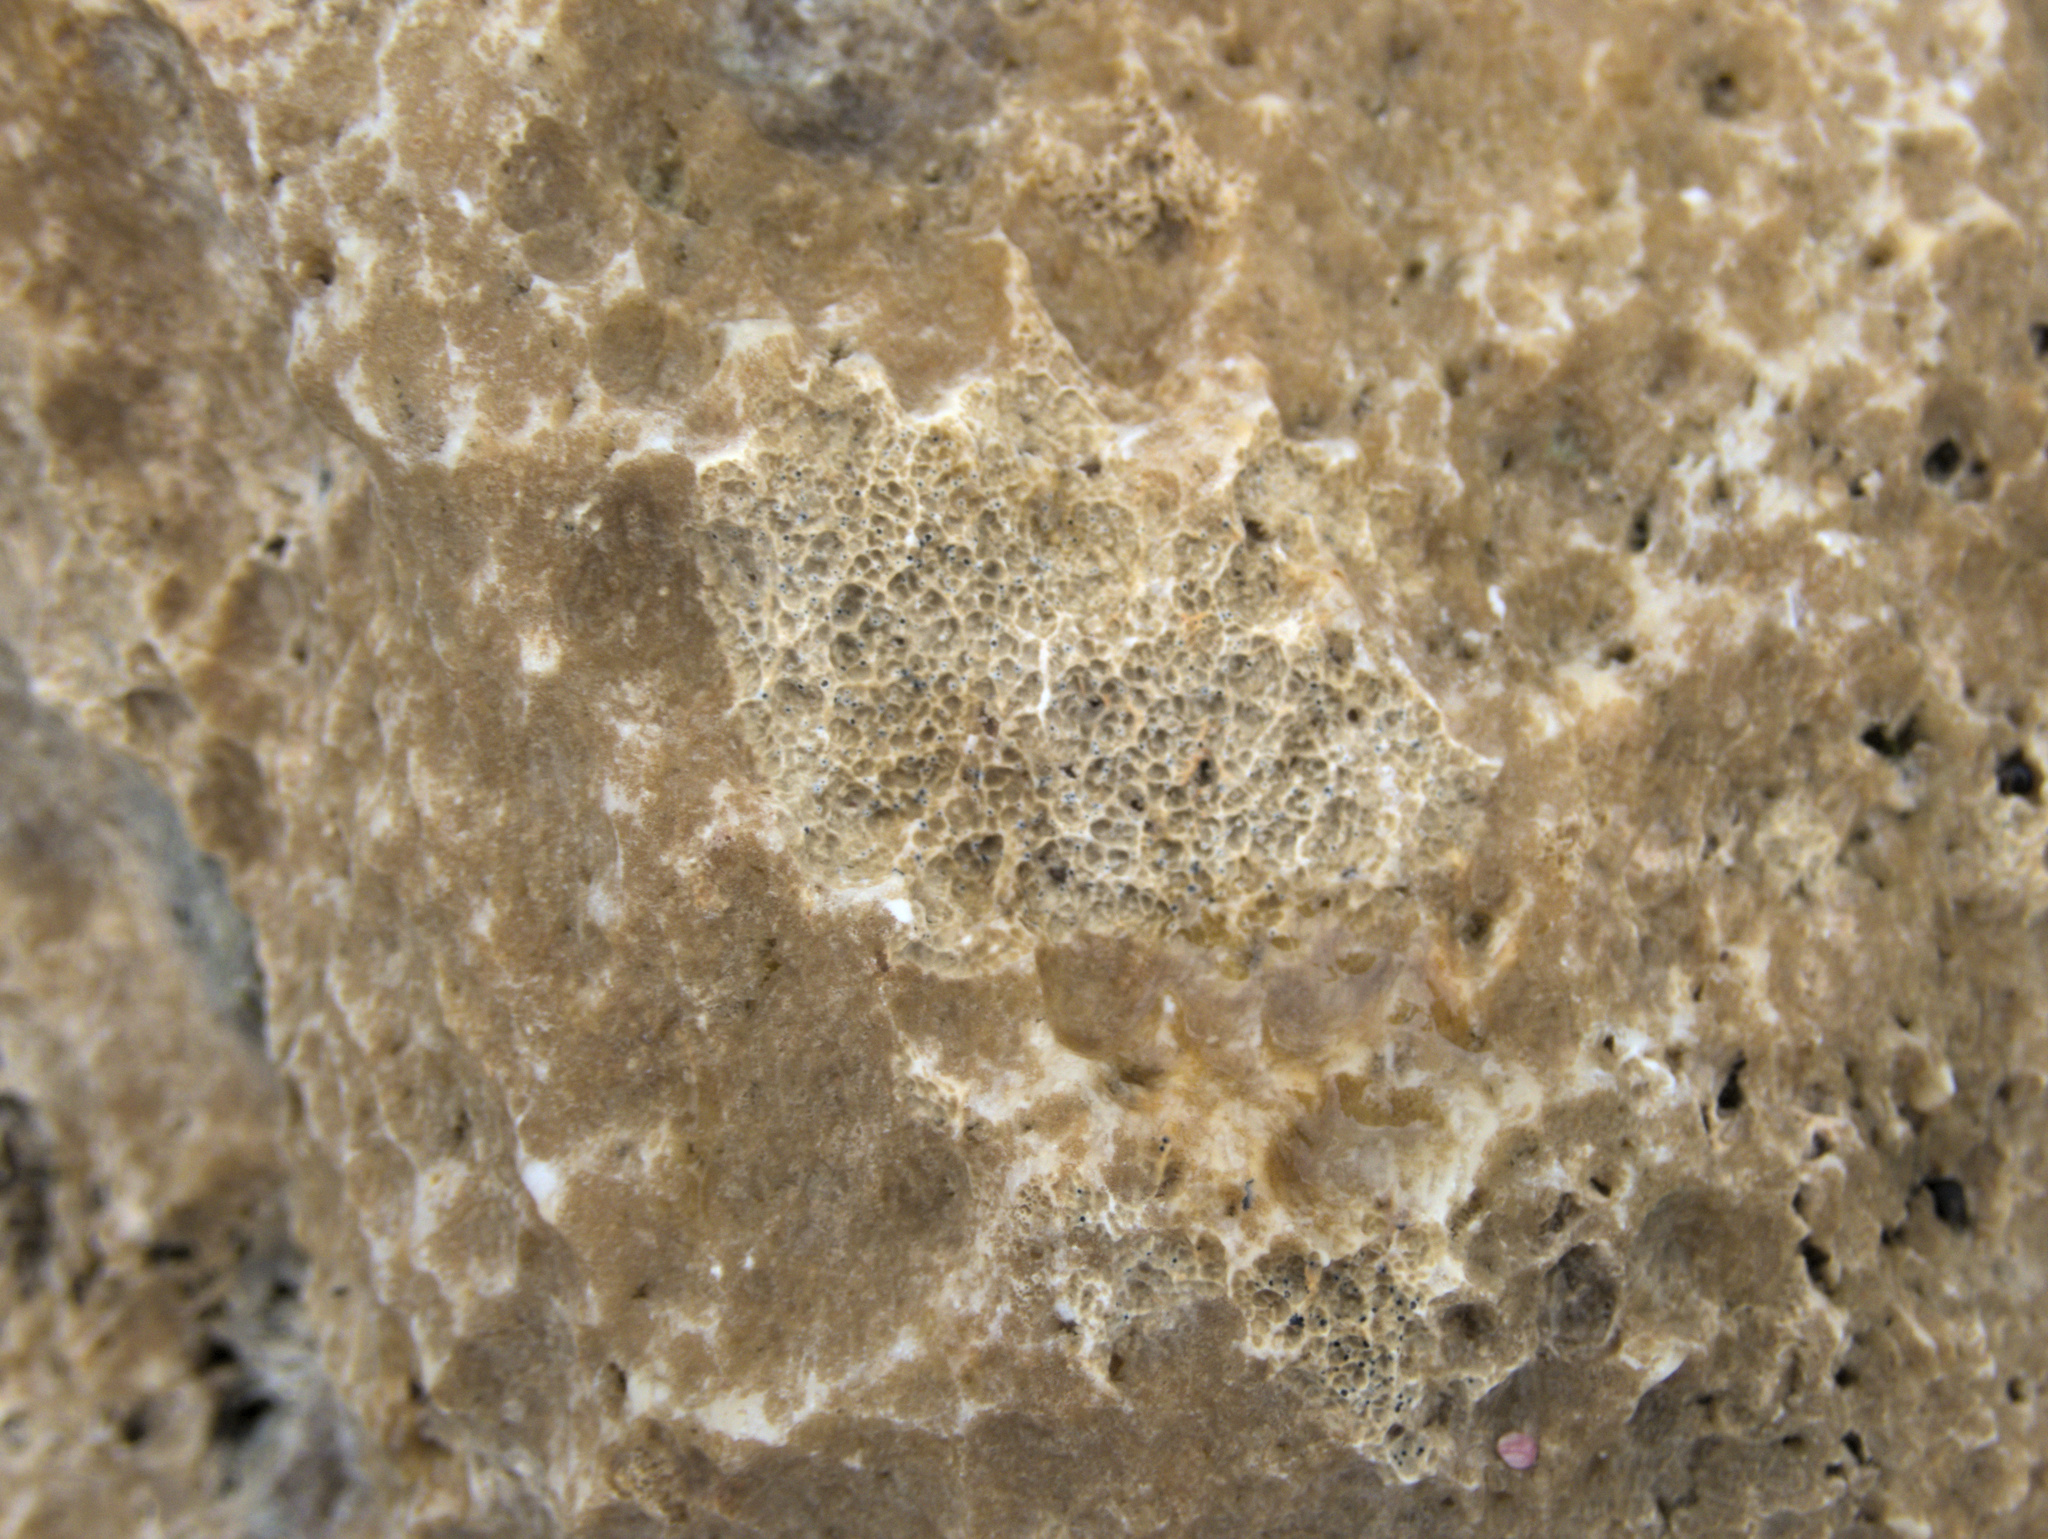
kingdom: Fungi
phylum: Ascomycota
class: Dothideomycetes
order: Collemopsidiales
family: Xanthopyreniaceae
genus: Collemopsidium
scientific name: Collemopsidium foveolatum
